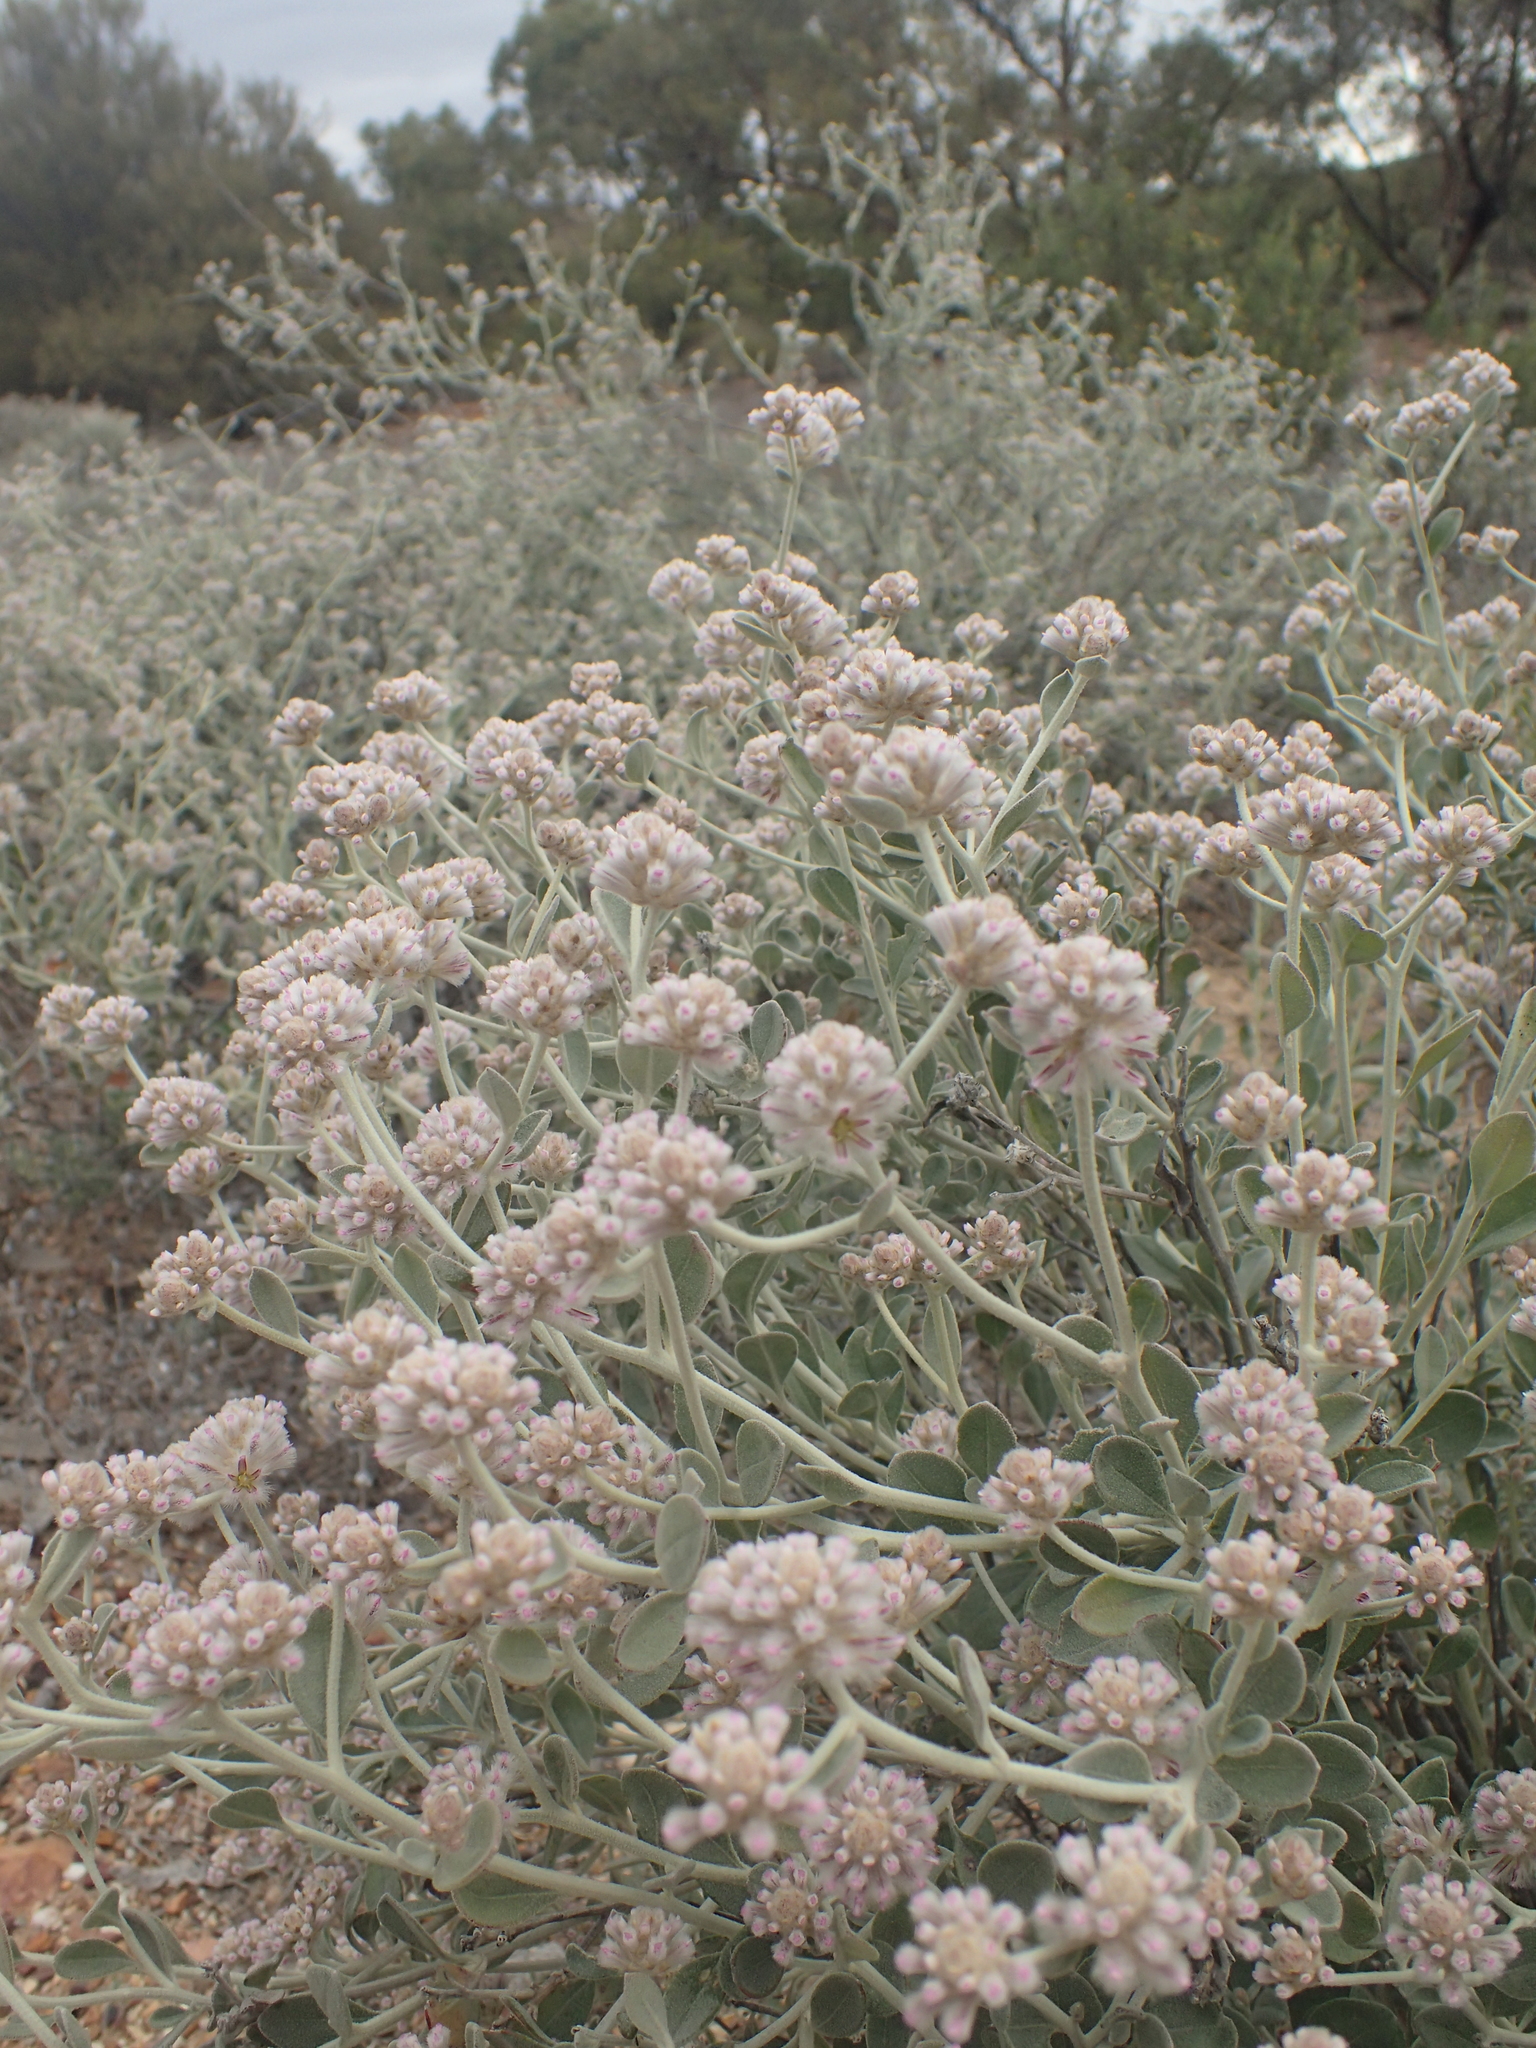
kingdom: Plantae
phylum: Tracheophyta
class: Magnoliopsida
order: Caryophyllales
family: Amaranthaceae
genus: Ptilotus
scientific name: Ptilotus obovatus
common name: Cottonbush
